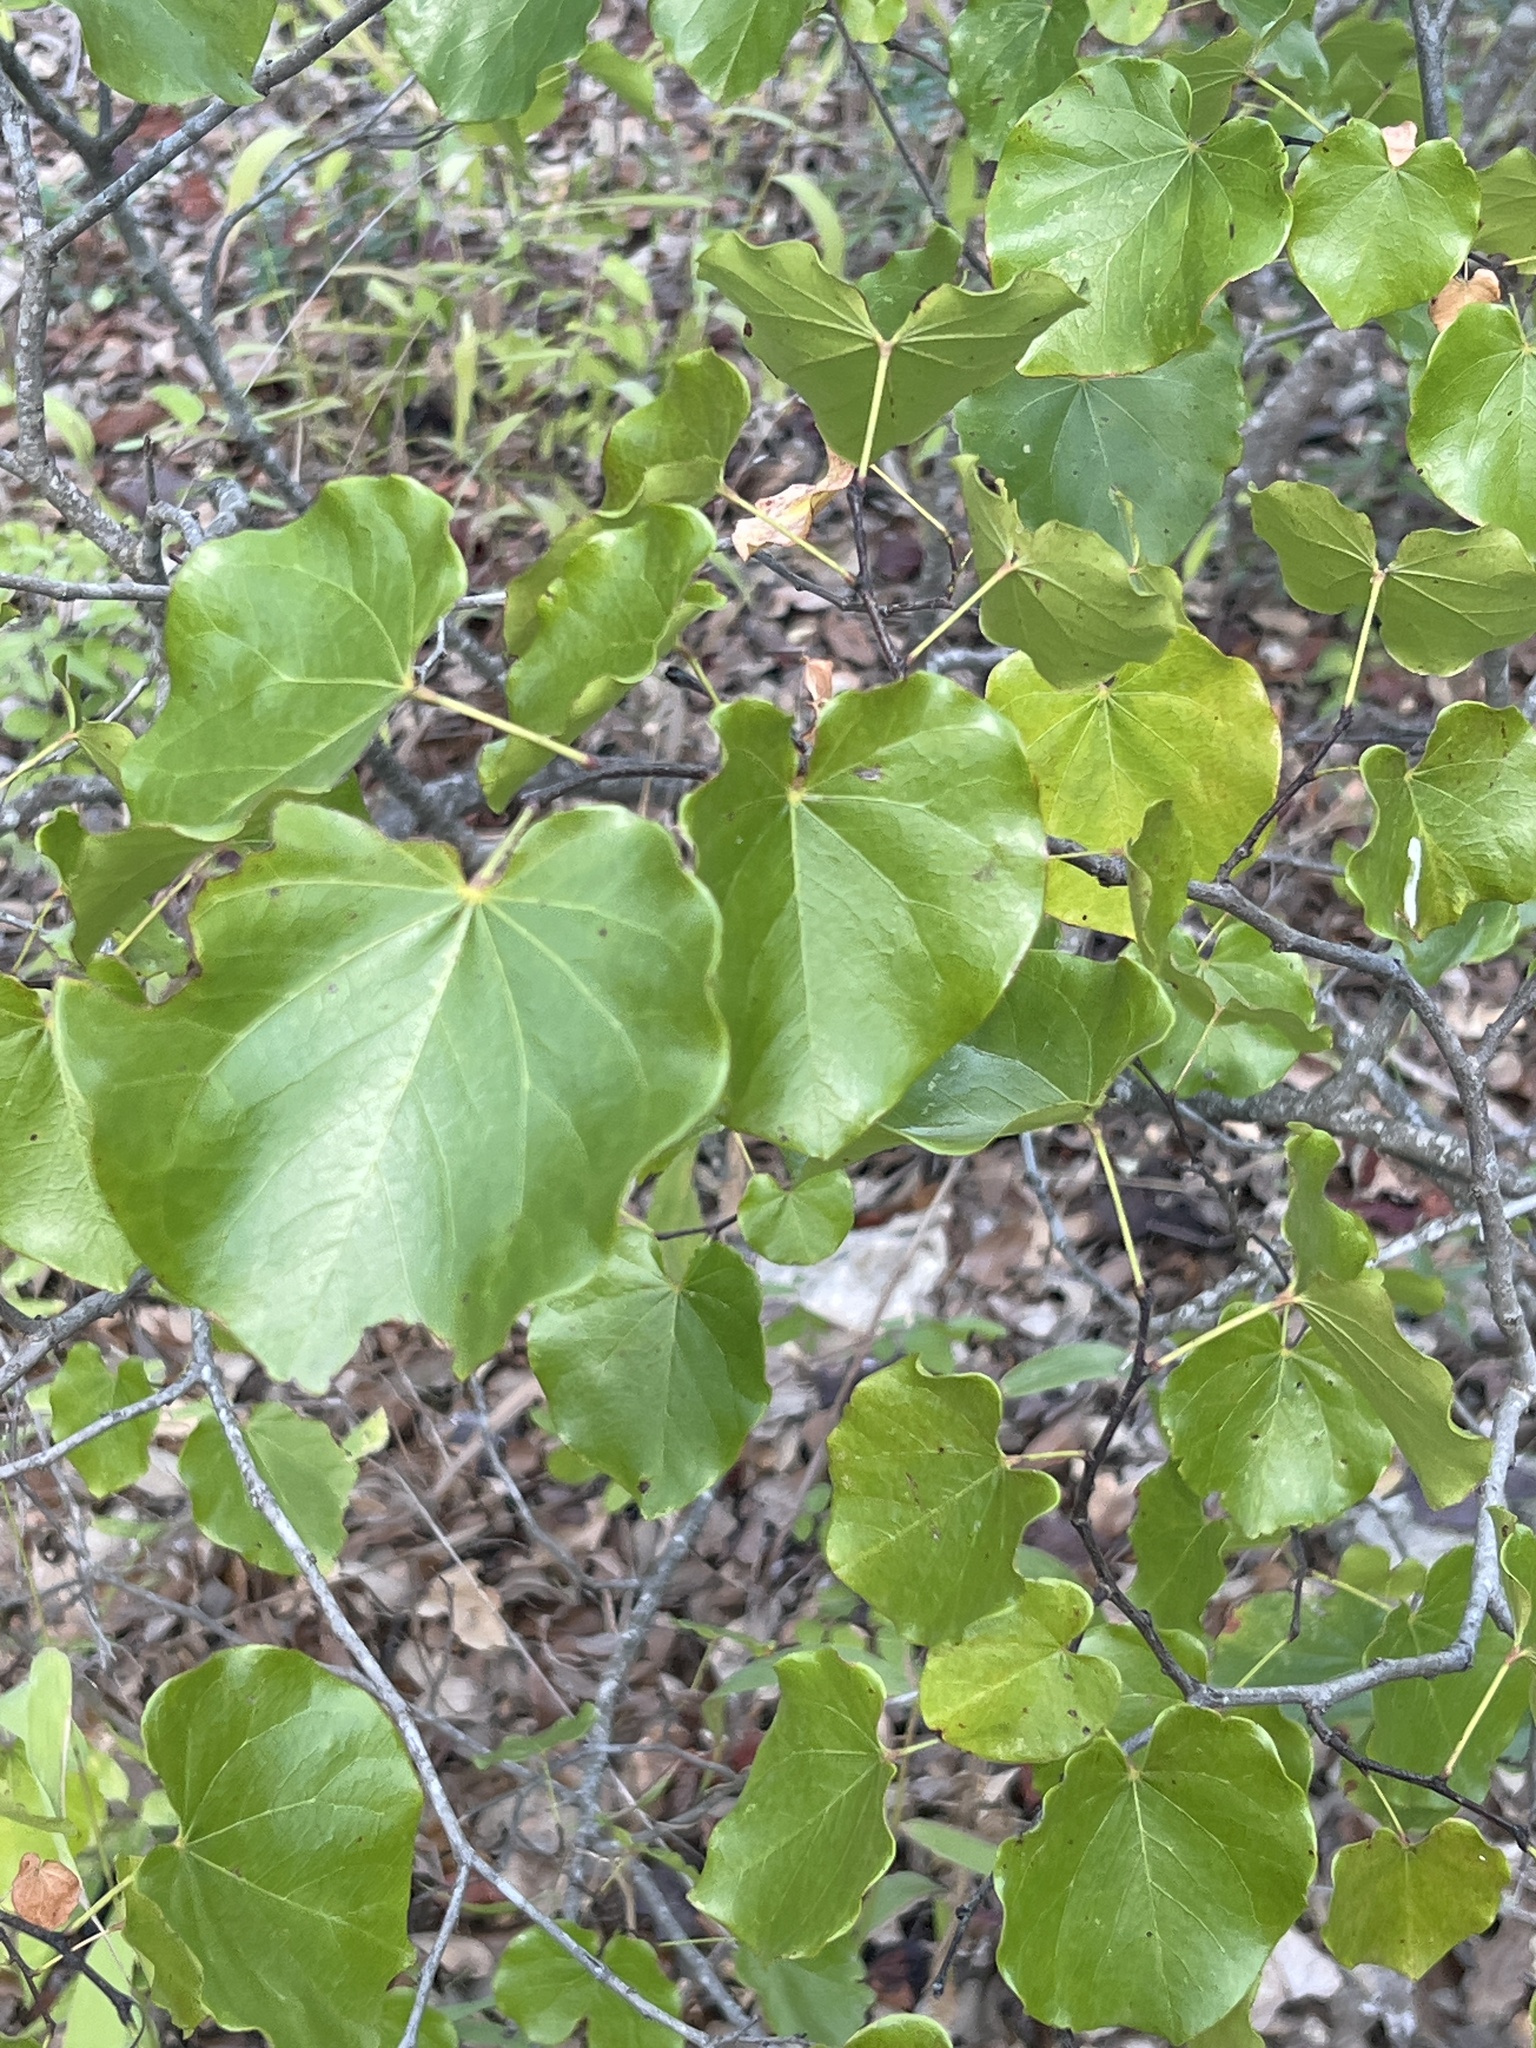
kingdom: Plantae
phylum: Tracheophyta
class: Magnoliopsida
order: Fabales
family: Fabaceae
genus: Cercis
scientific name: Cercis canadensis
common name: Eastern redbud
